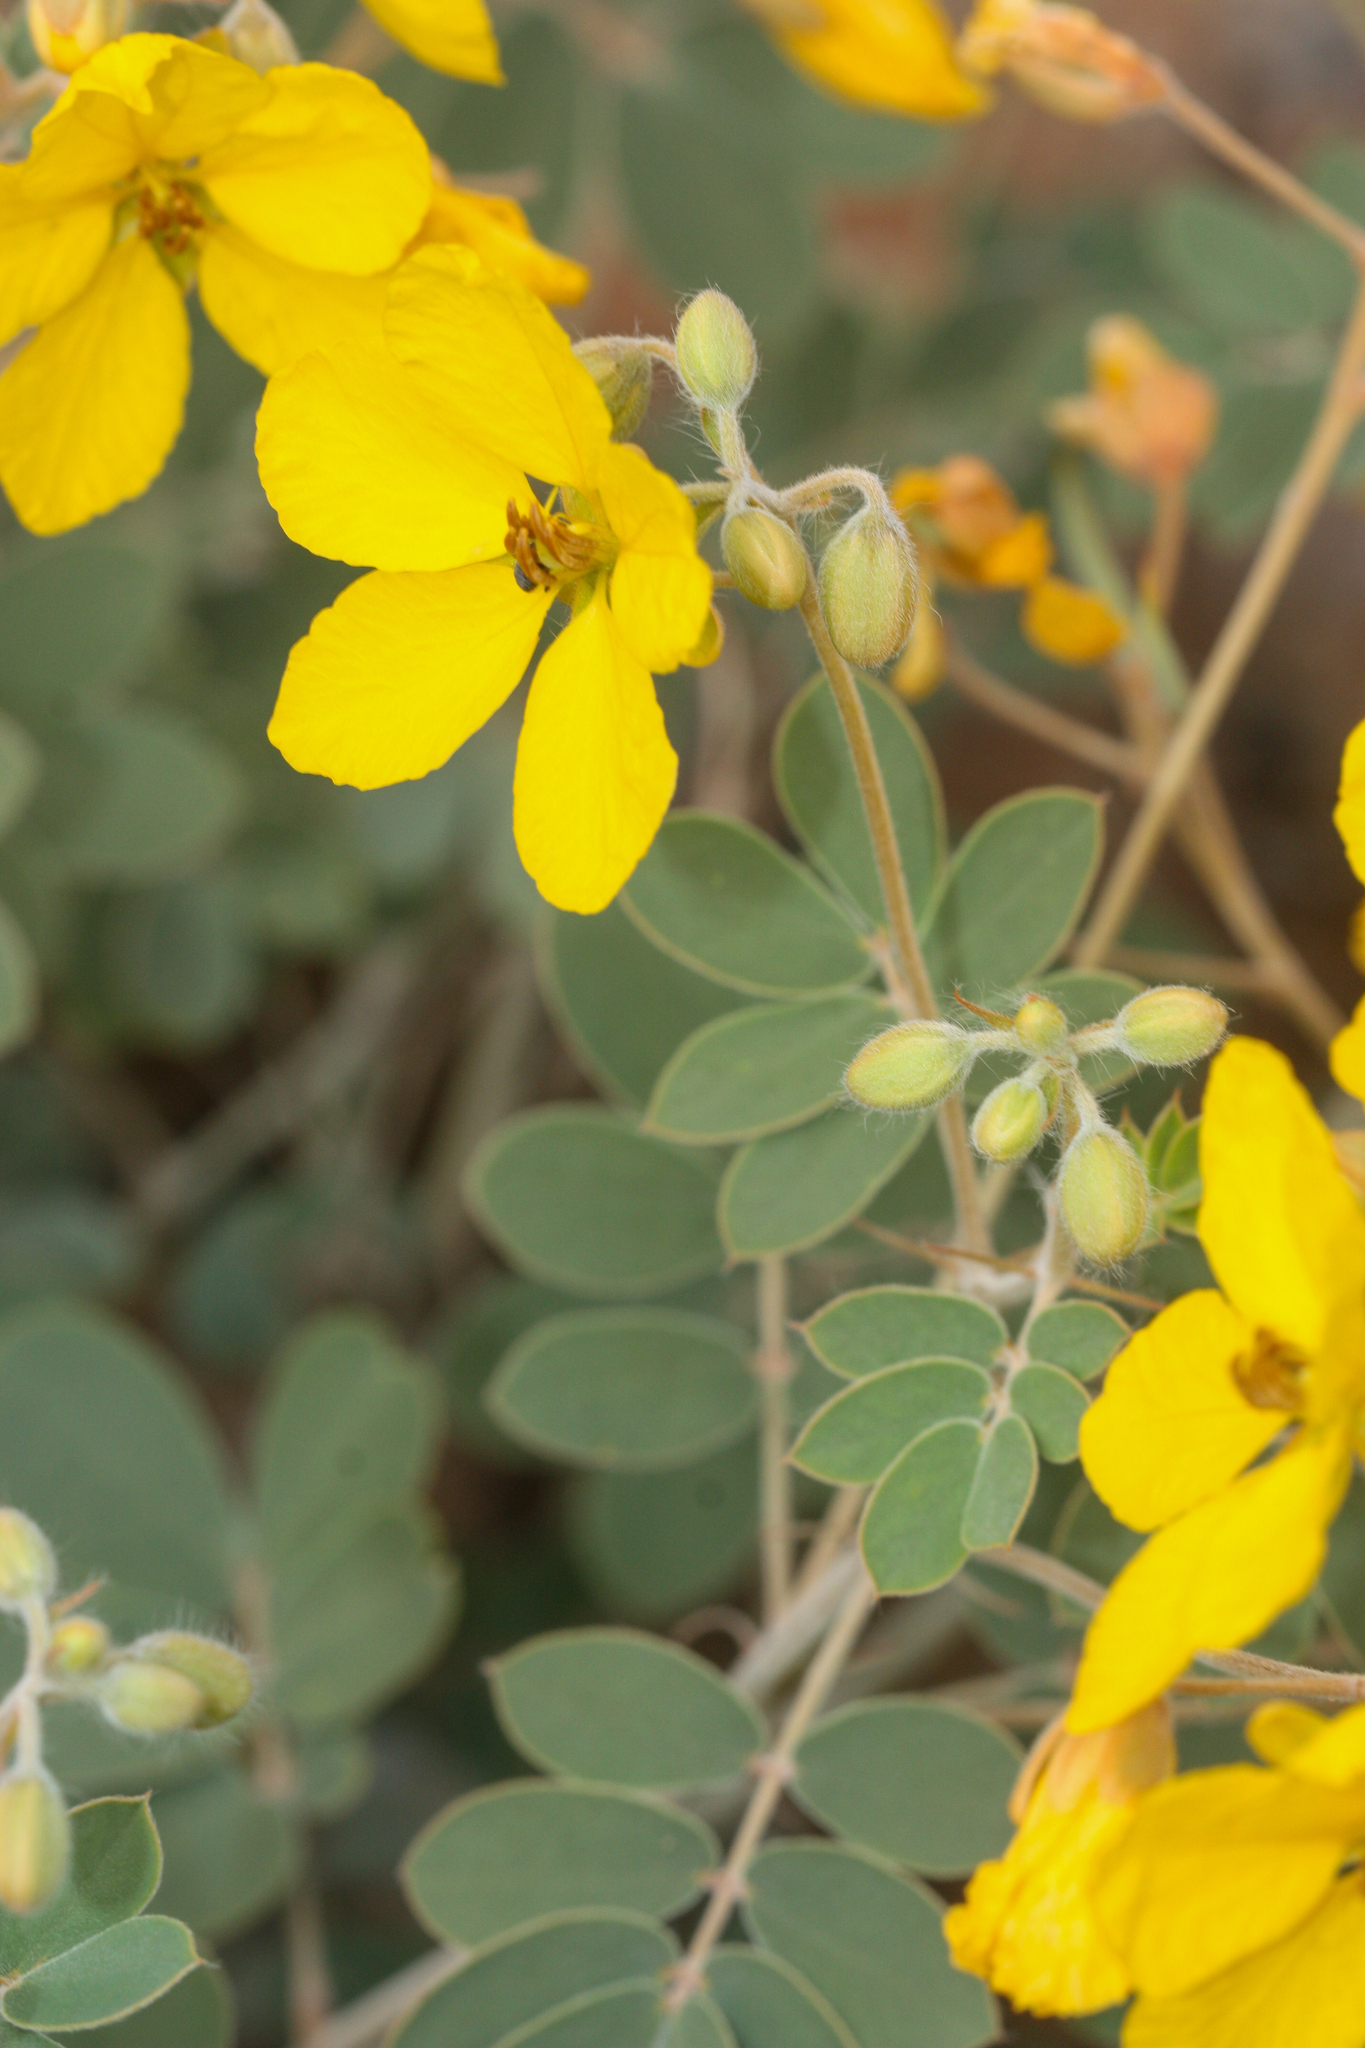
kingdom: Plantae
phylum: Tracheophyta
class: Magnoliopsida
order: Fabales
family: Fabaceae
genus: Senna
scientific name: Senna covesii
